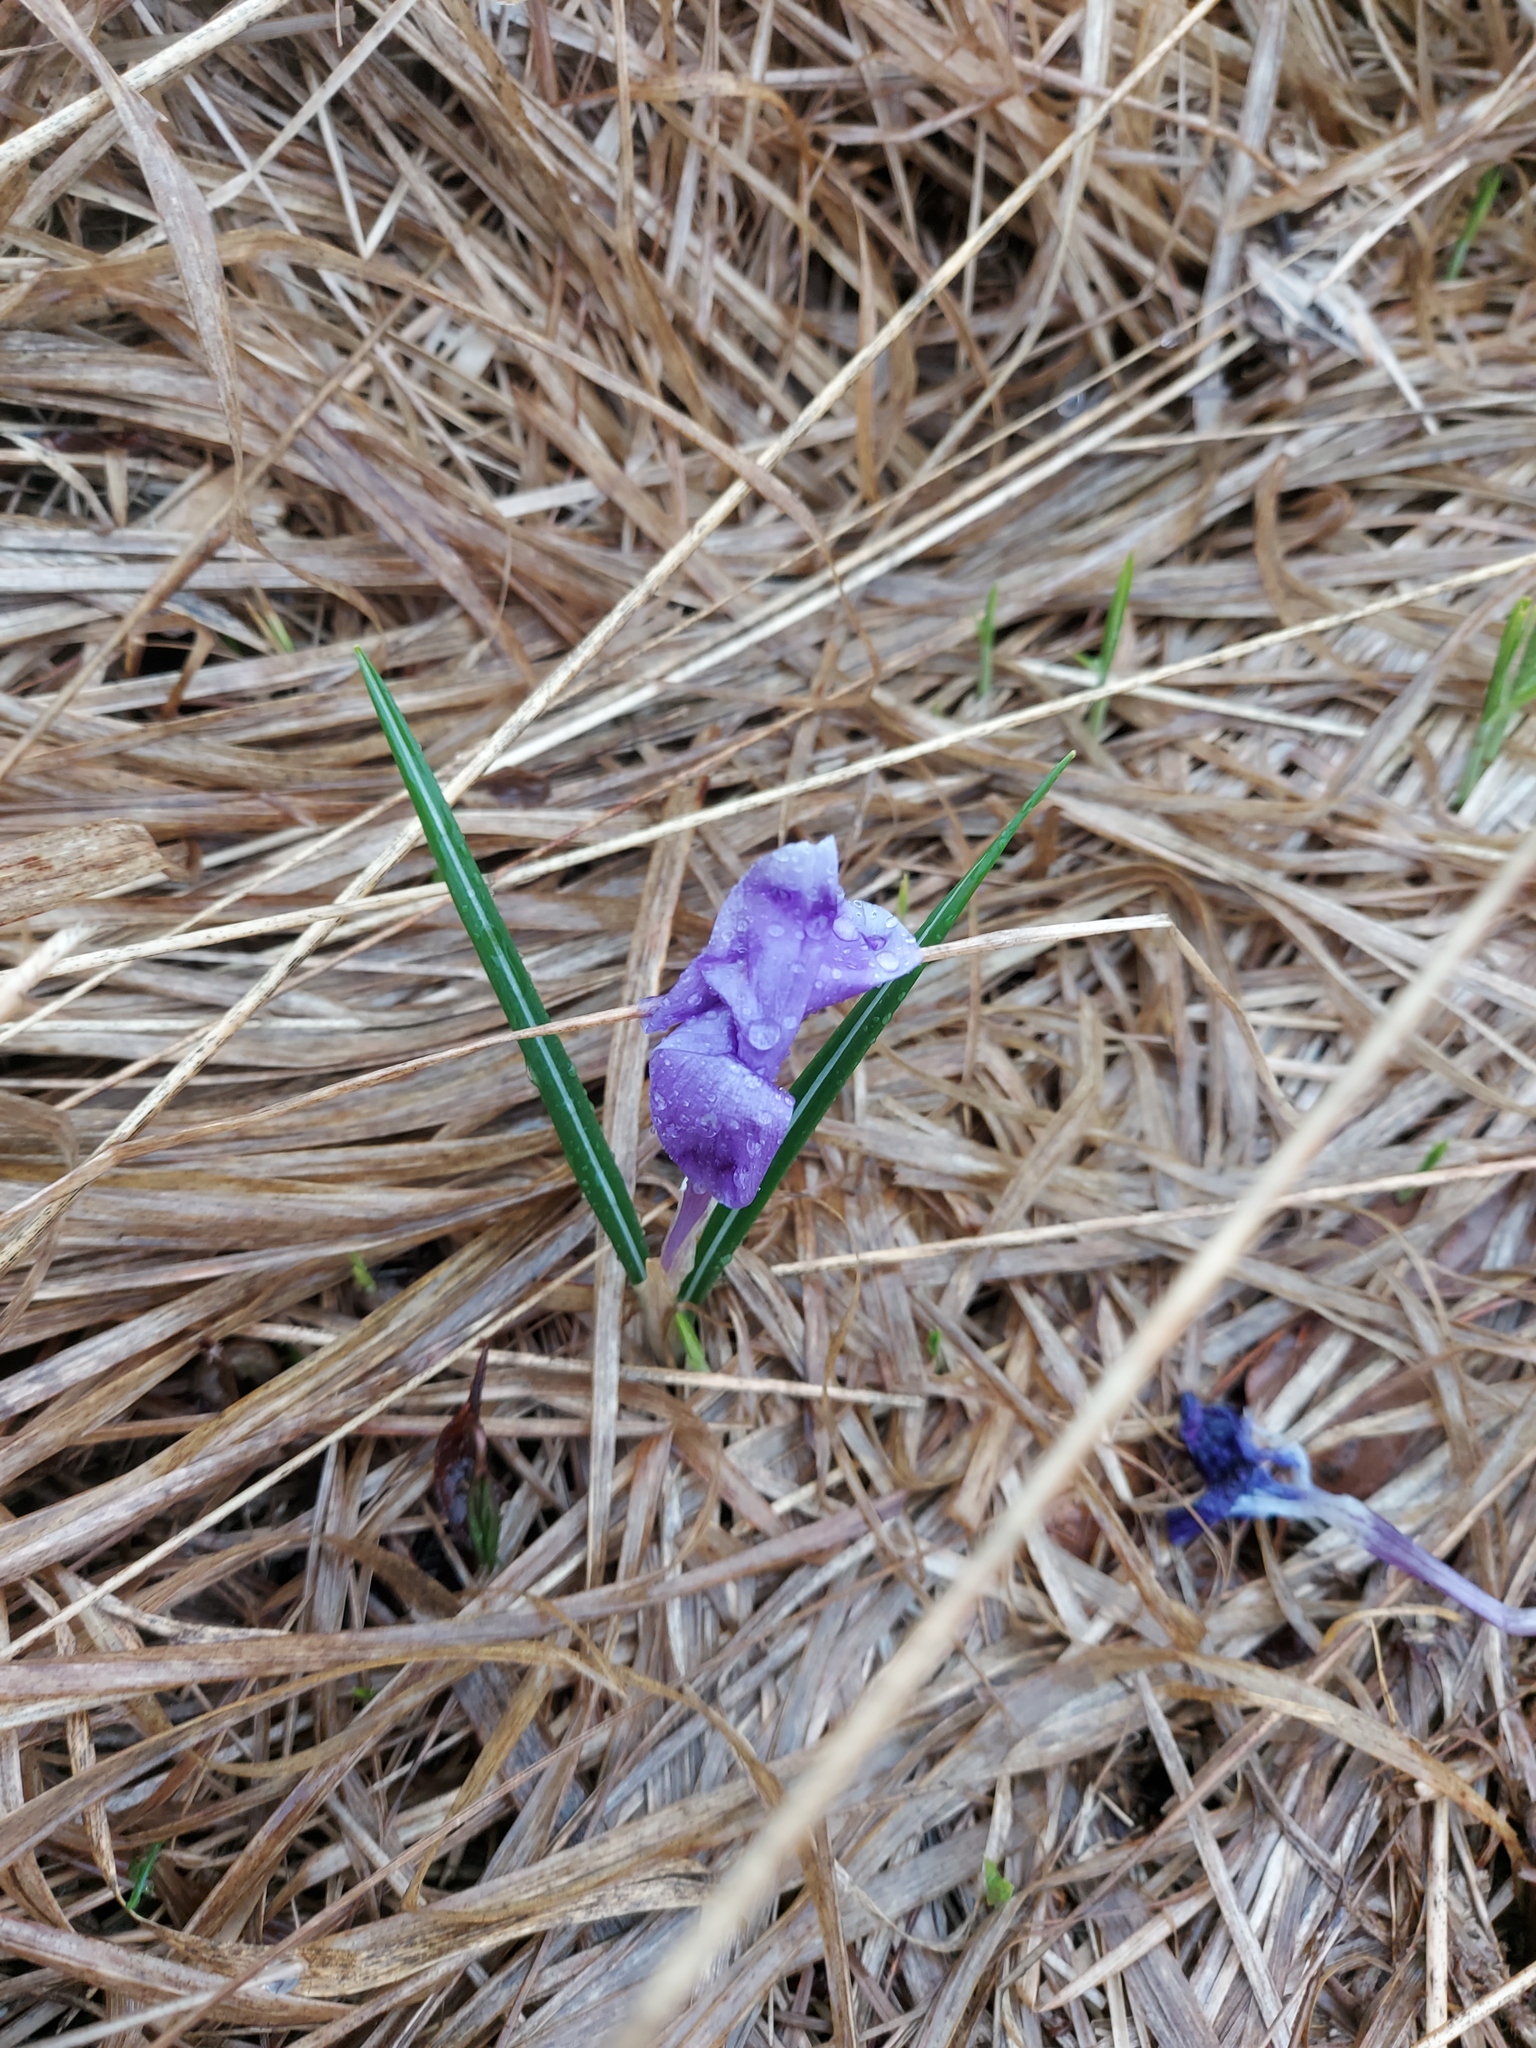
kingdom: Plantae
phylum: Tracheophyta
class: Liliopsida
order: Asparagales
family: Iridaceae
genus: Crocus
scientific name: Crocus heuffelianus
